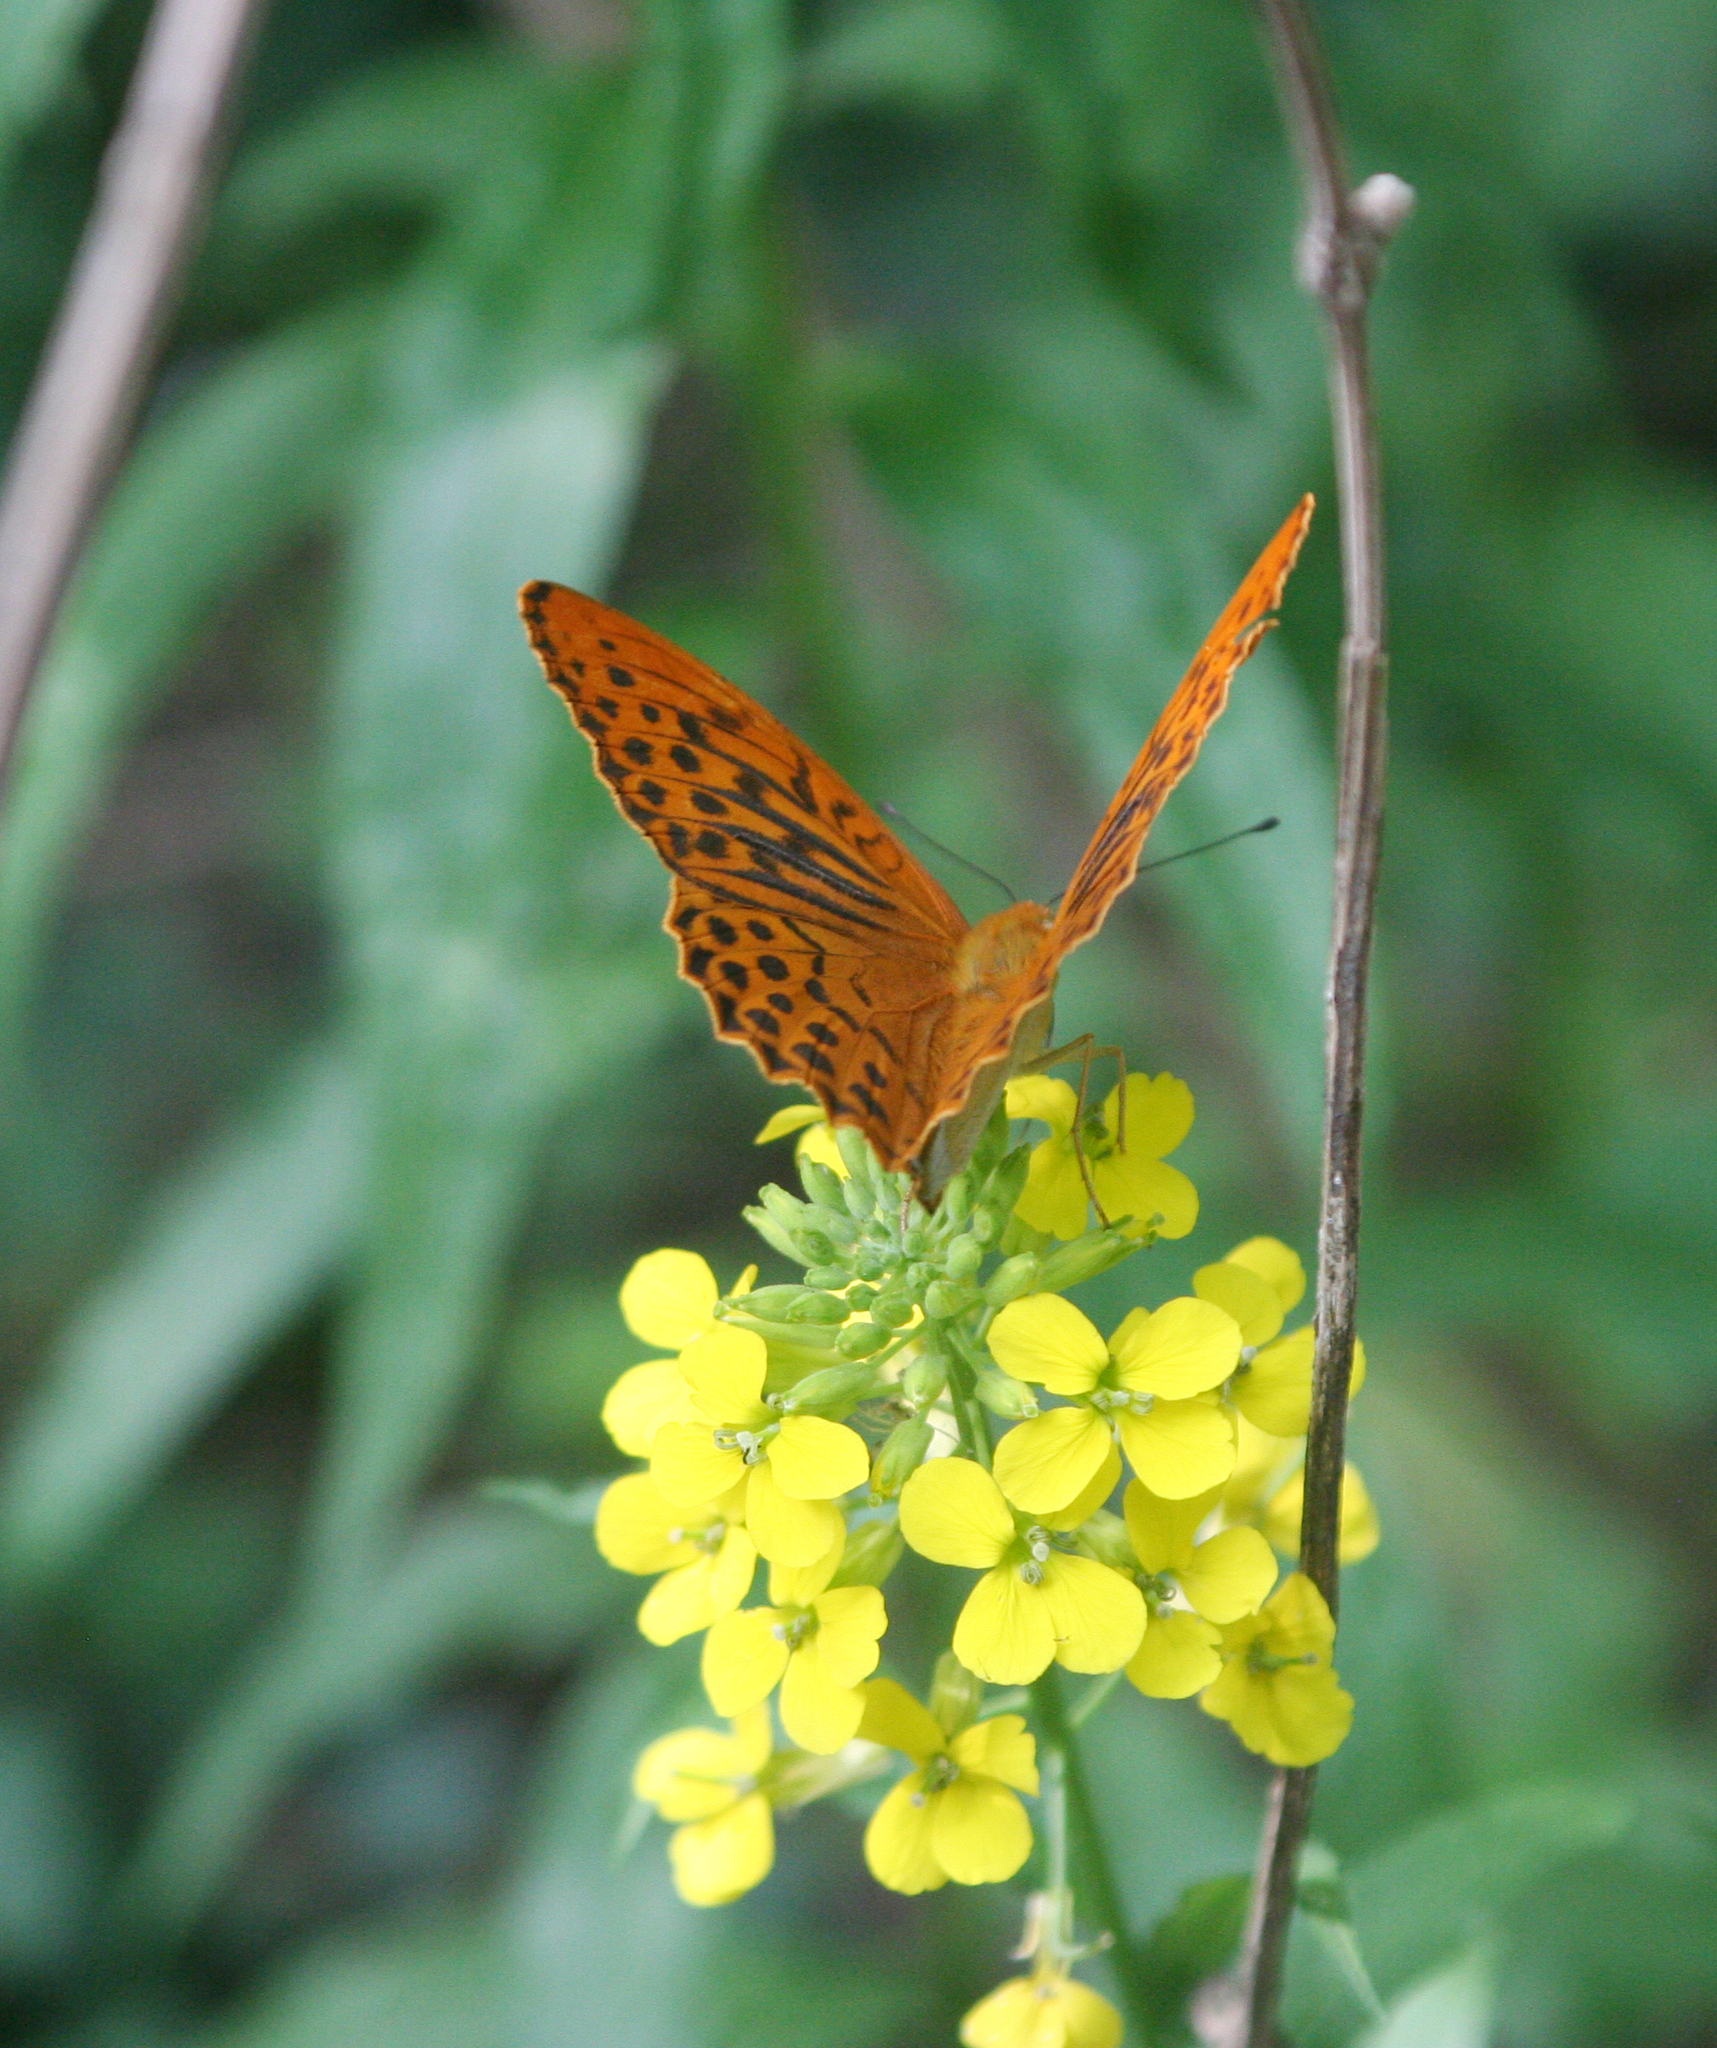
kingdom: Plantae
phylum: Tracheophyta
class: Magnoliopsida
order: Brassicales
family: Brassicaceae
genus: Erysimum
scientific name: Erysimum aureum
